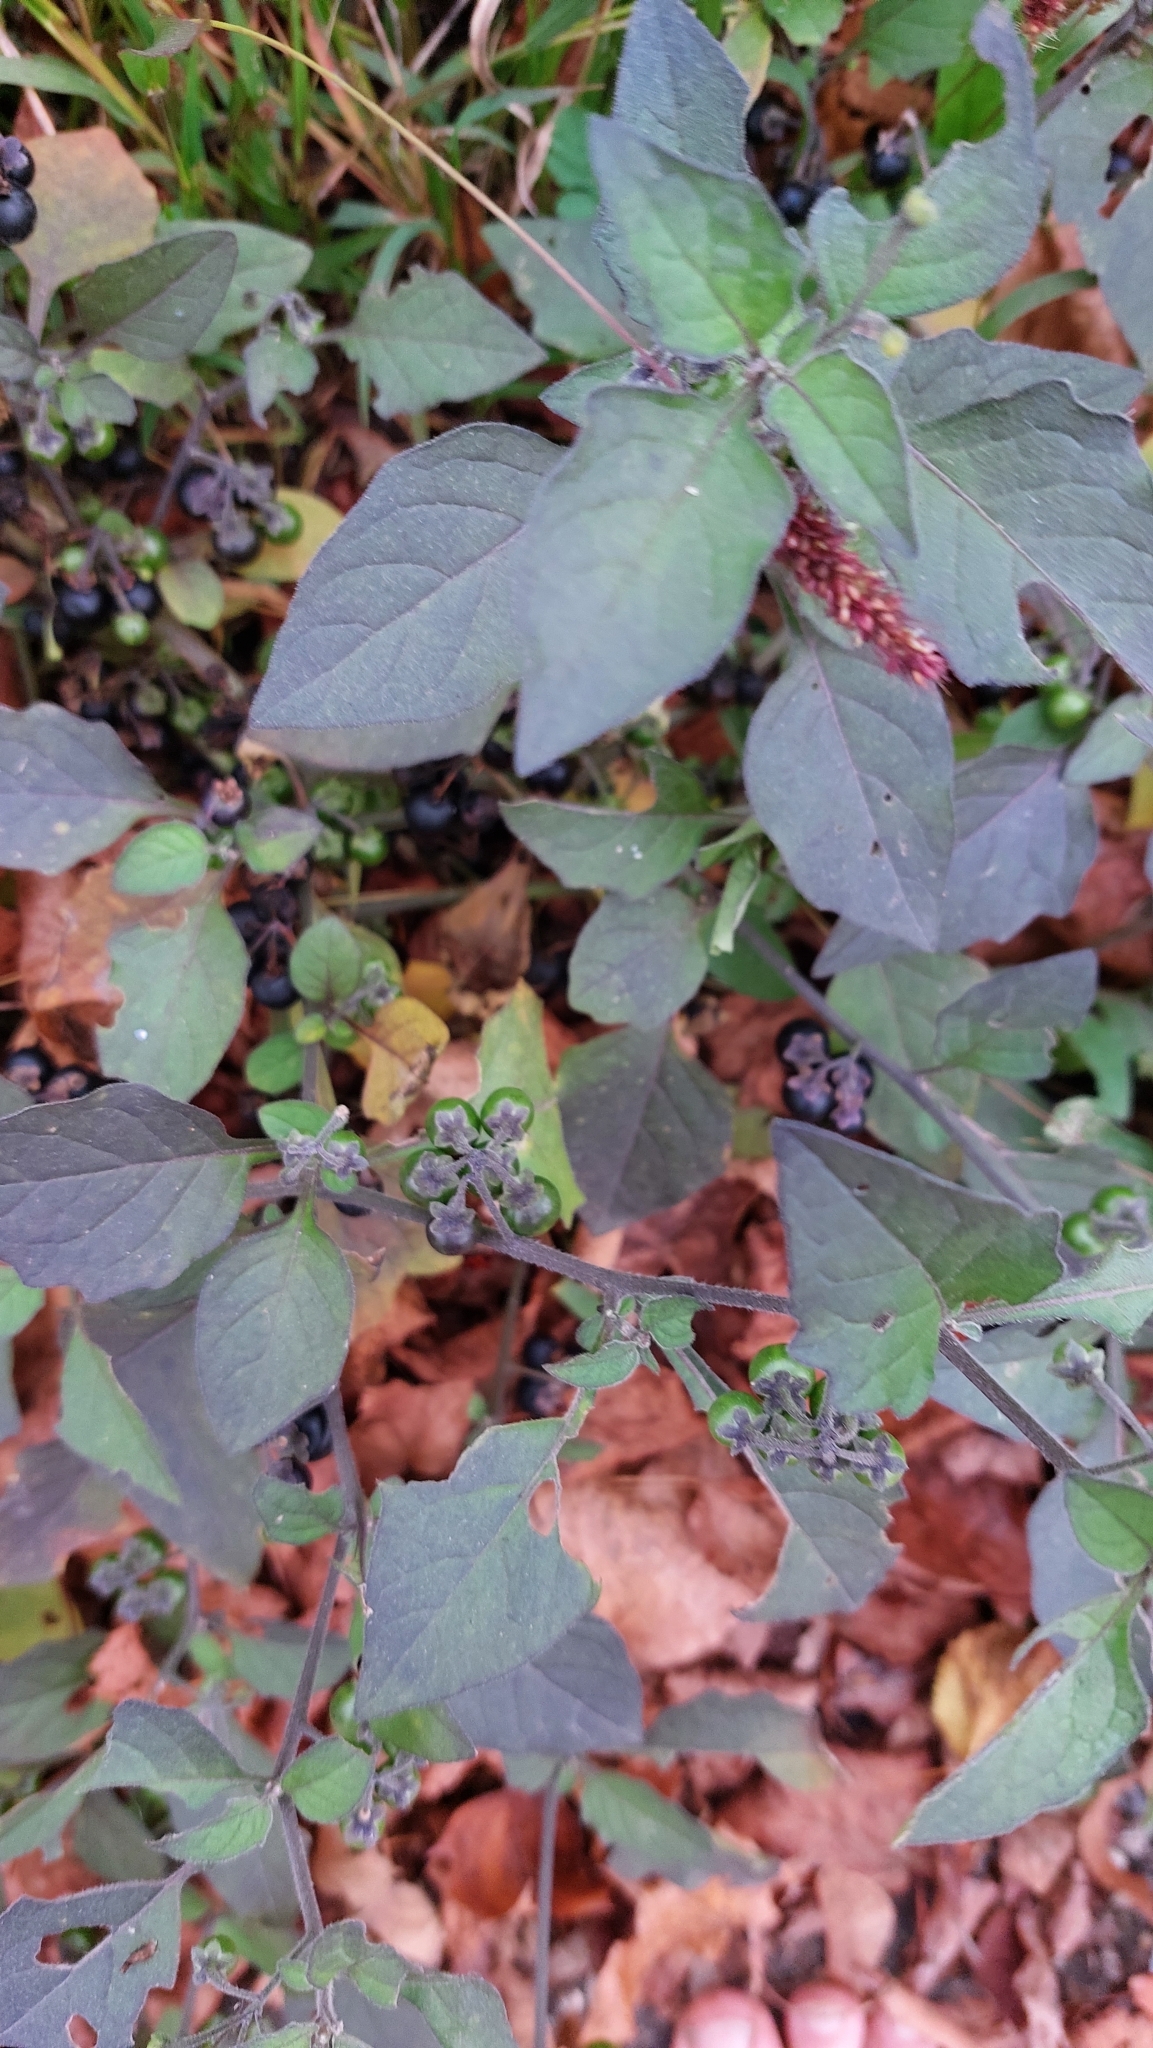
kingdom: Plantae
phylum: Tracheophyta
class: Magnoliopsida
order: Solanales
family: Solanaceae
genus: Solanum
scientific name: Solanum nigrum
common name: Black nightshade
